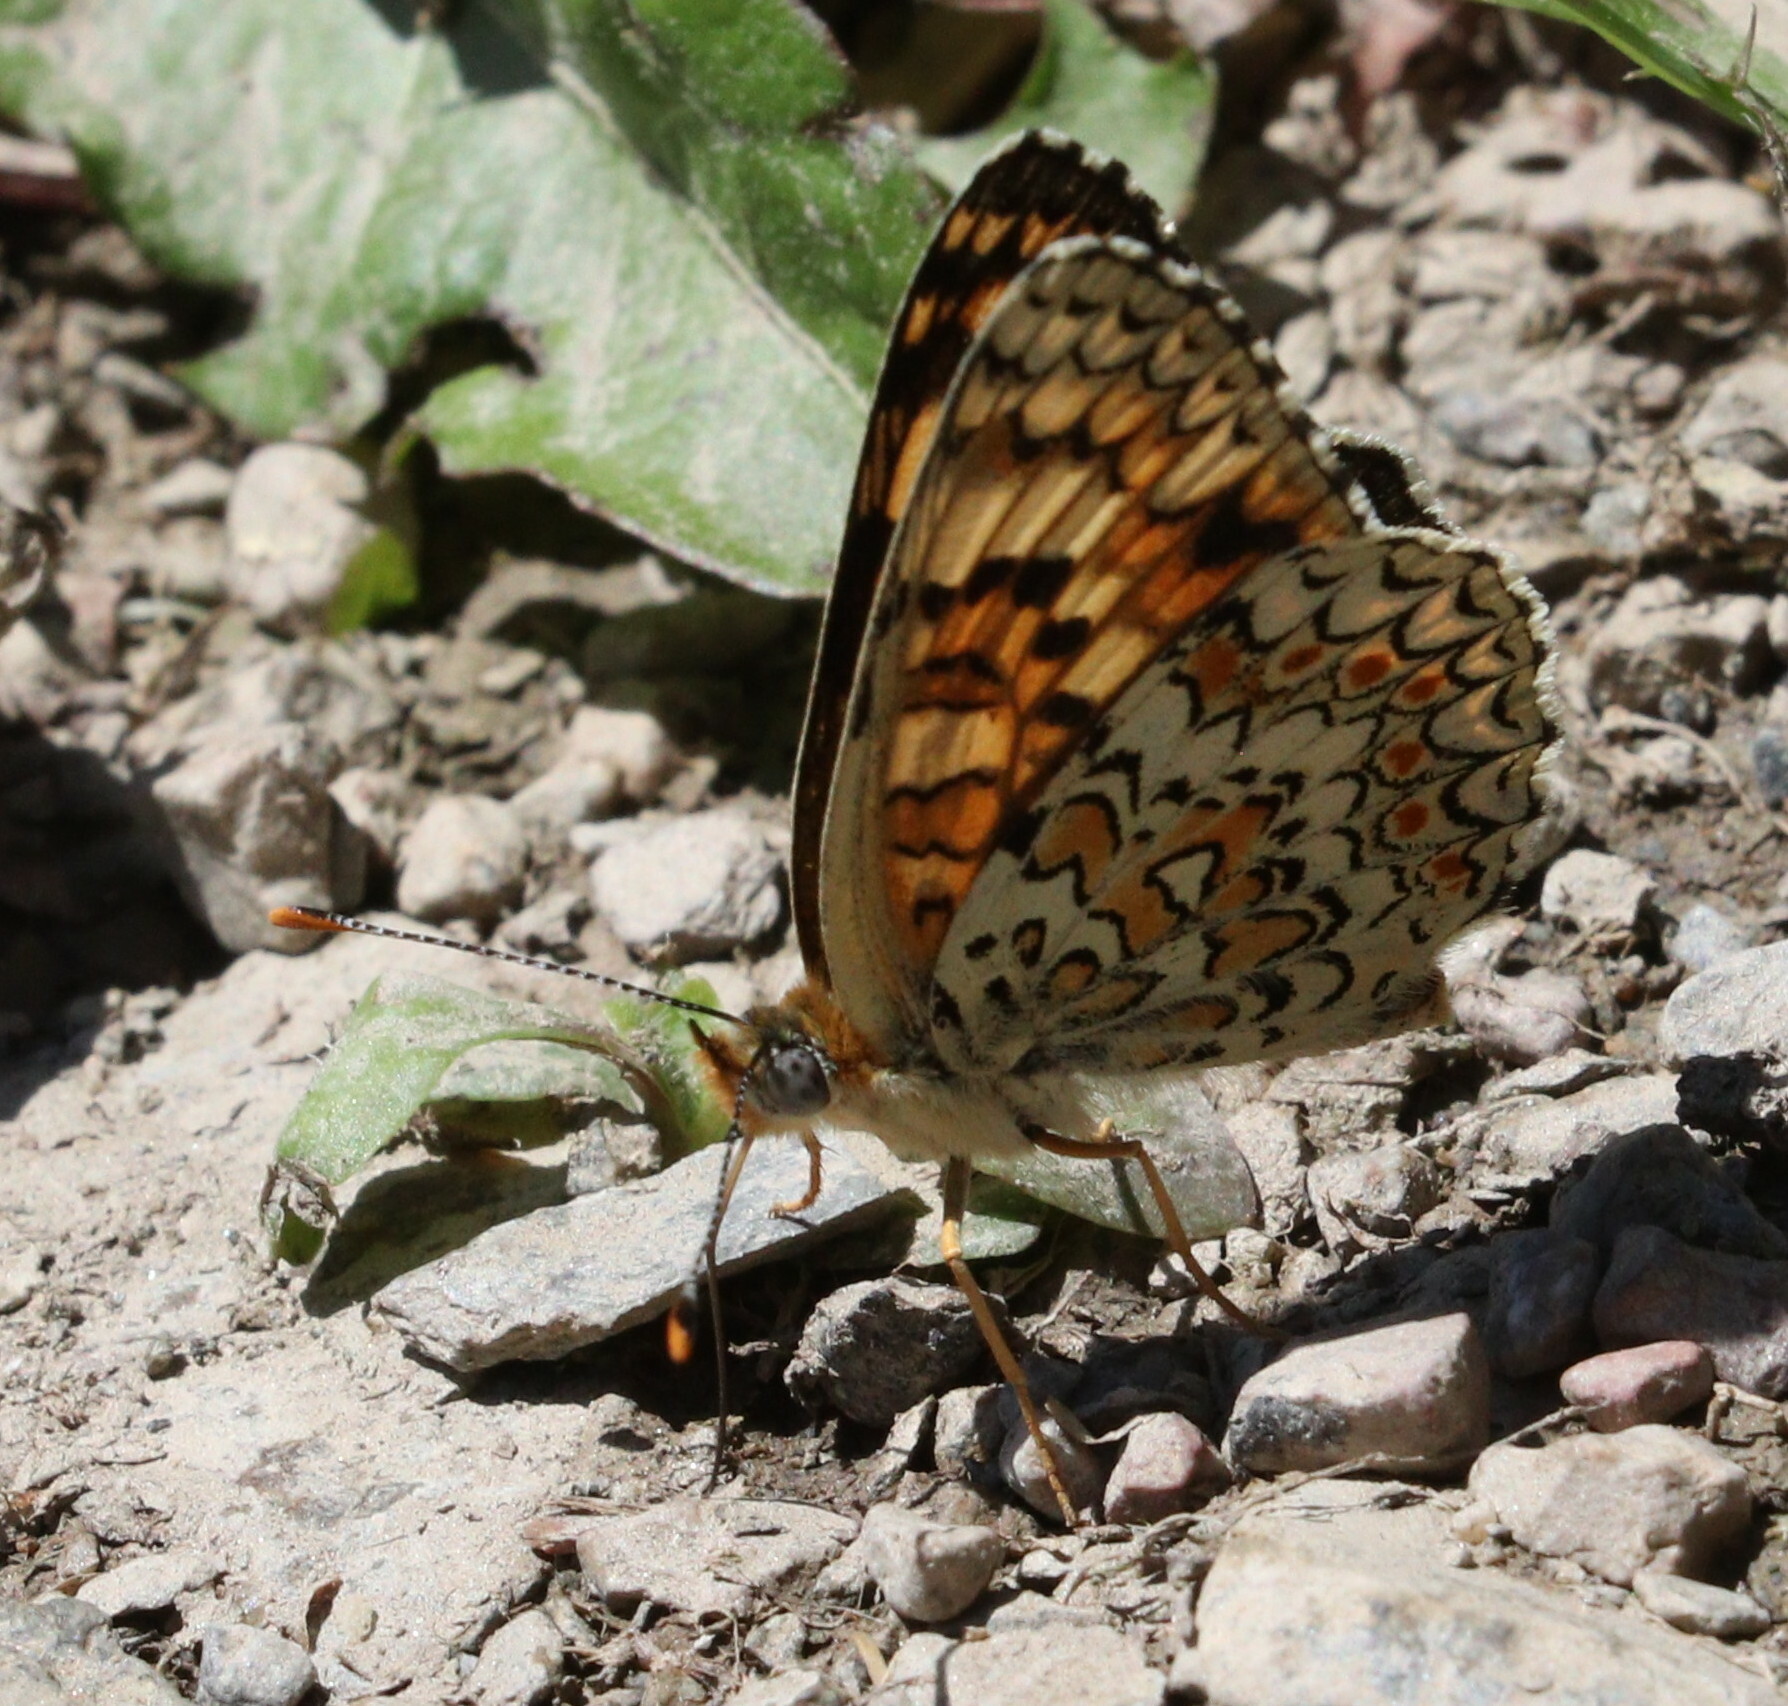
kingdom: Animalia
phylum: Arthropoda
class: Insecta
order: Lepidoptera
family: Nymphalidae
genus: Melitaea
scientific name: Melitaea phoebe
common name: Knapweed fritillary
